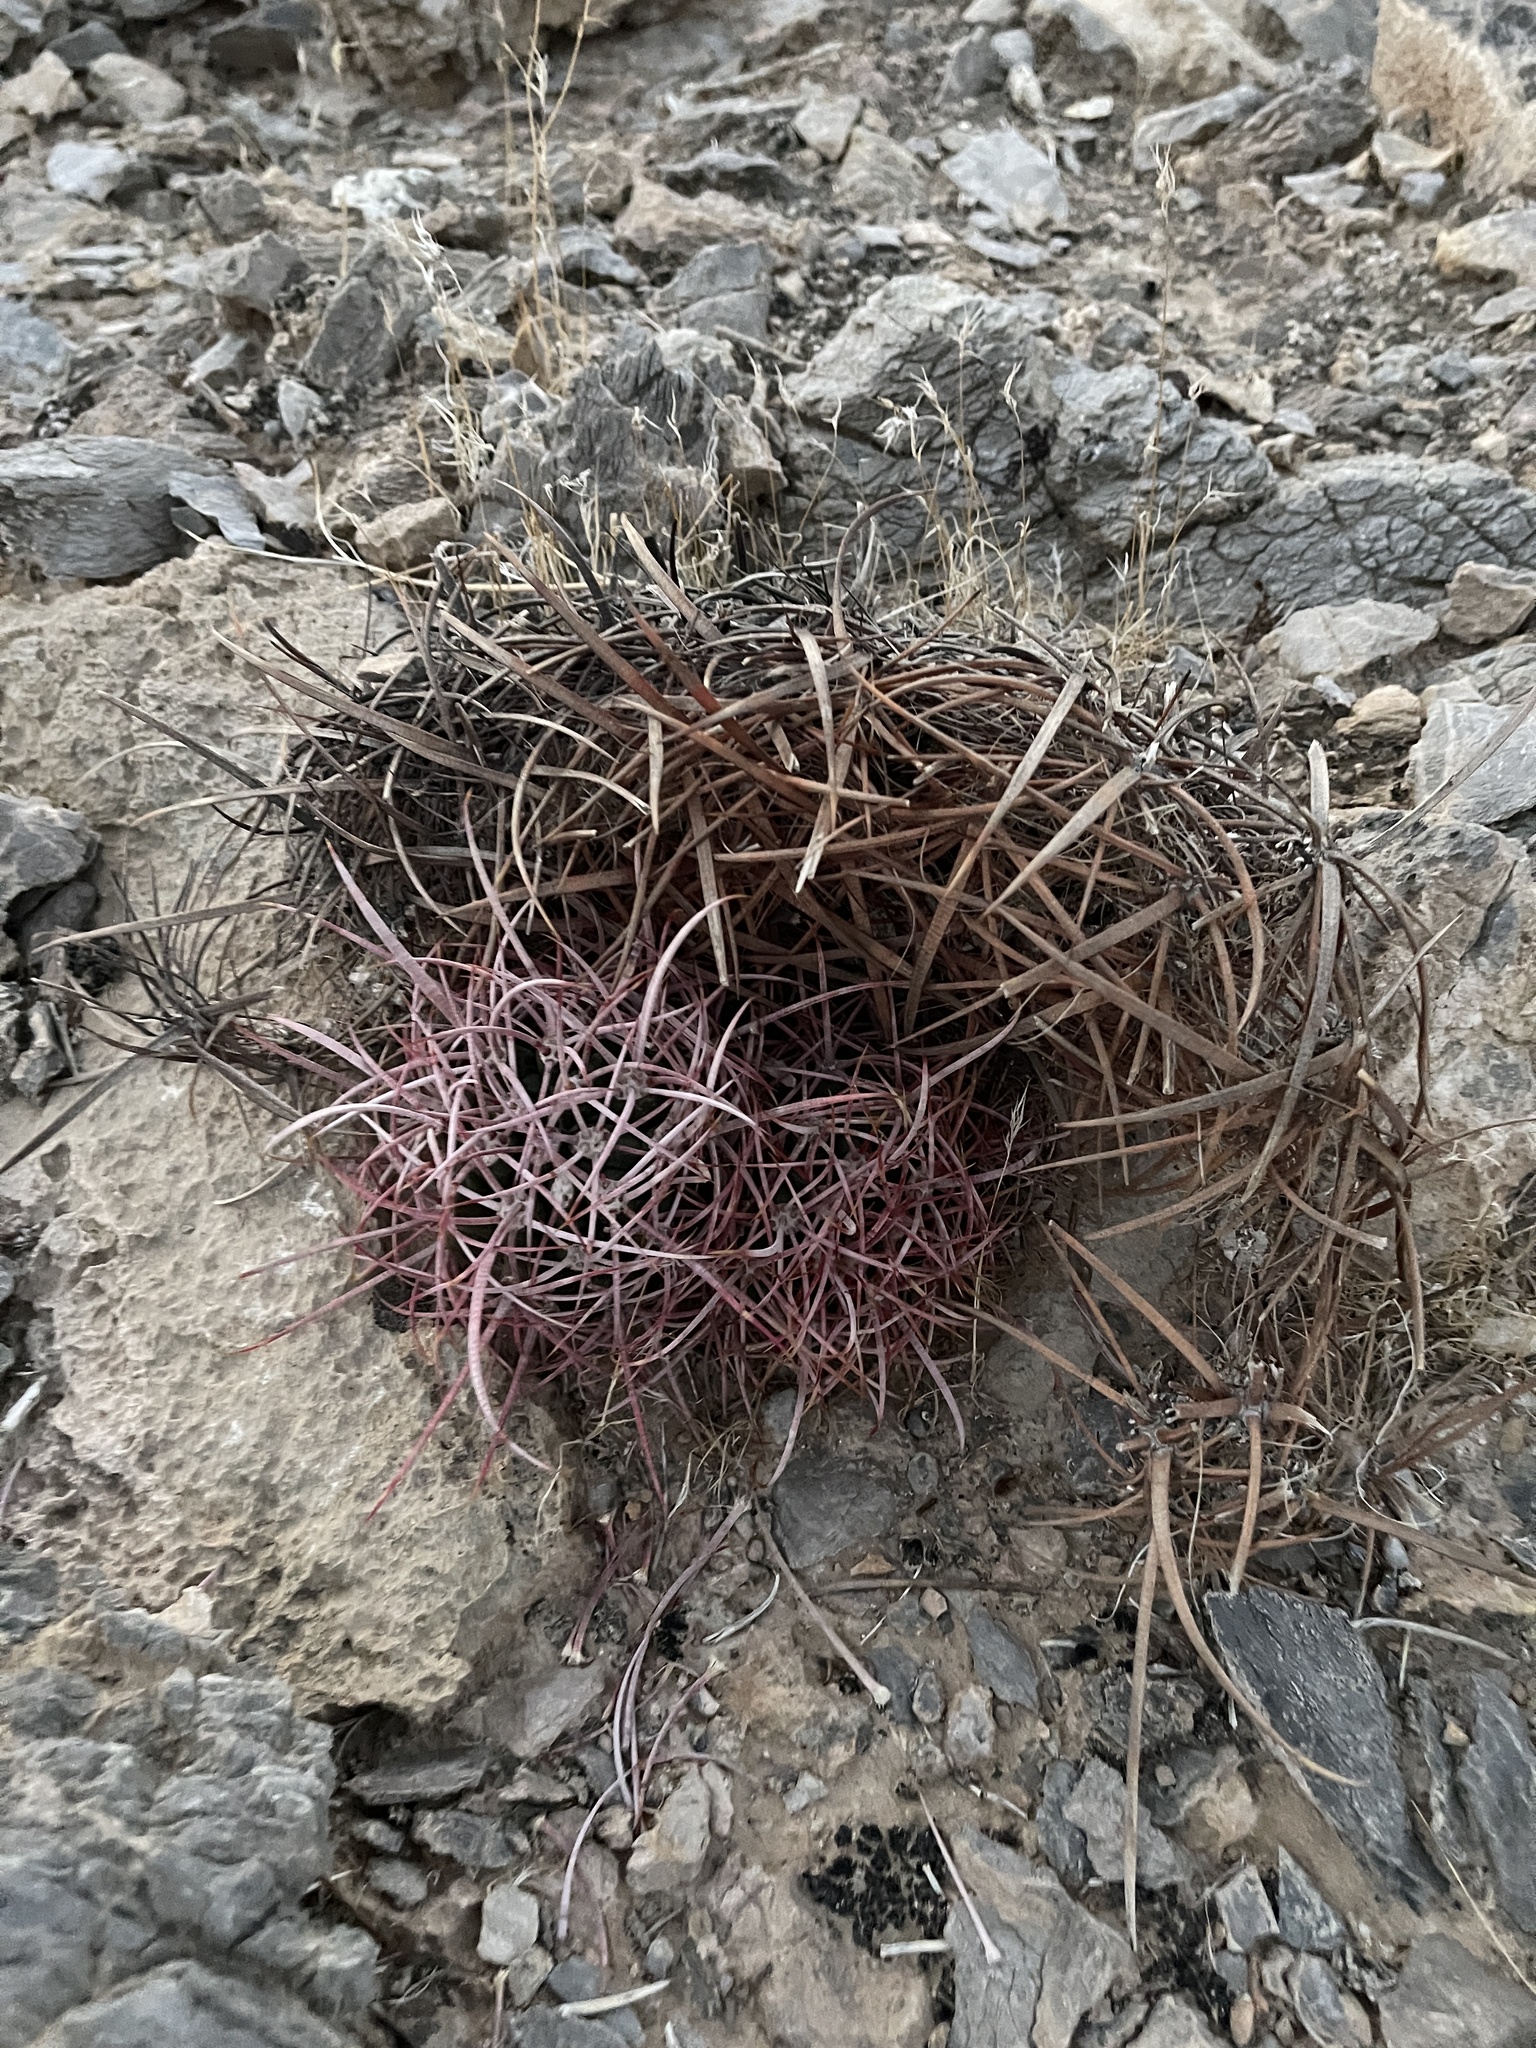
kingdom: Plantae
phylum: Tracheophyta
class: Magnoliopsida
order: Caryophyllales
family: Cactaceae
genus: Ferocactus
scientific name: Ferocactus cylindraceus
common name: California barrel cactus
